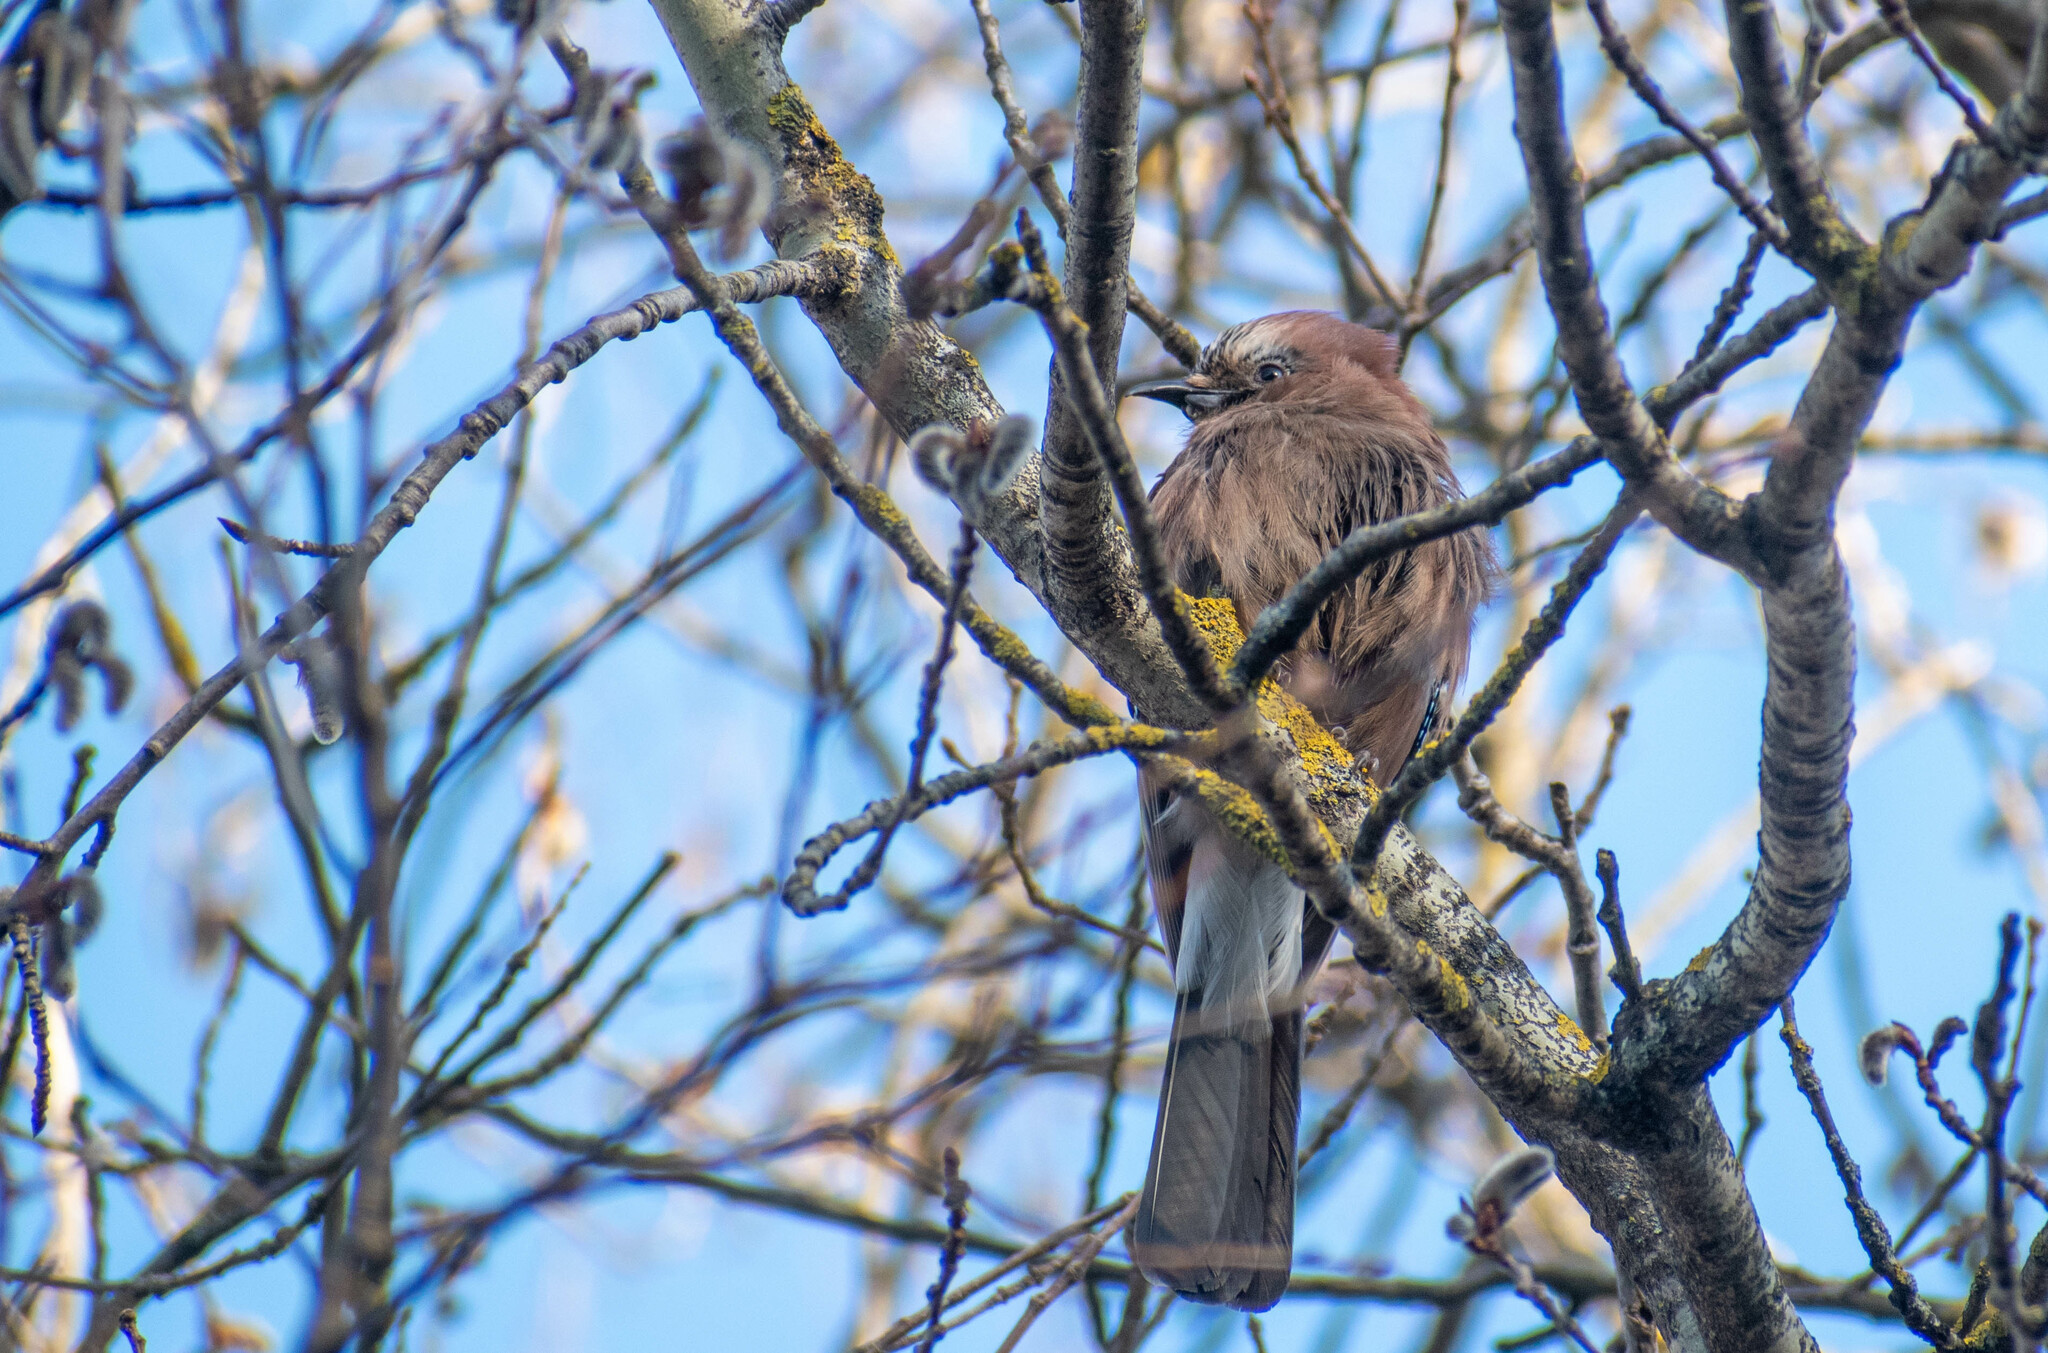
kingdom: Animalia
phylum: Chordata
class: Aves
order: Passeriformes
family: Corvidae
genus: Garrulus
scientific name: Garrulus glandarius
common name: Eurasian jay
